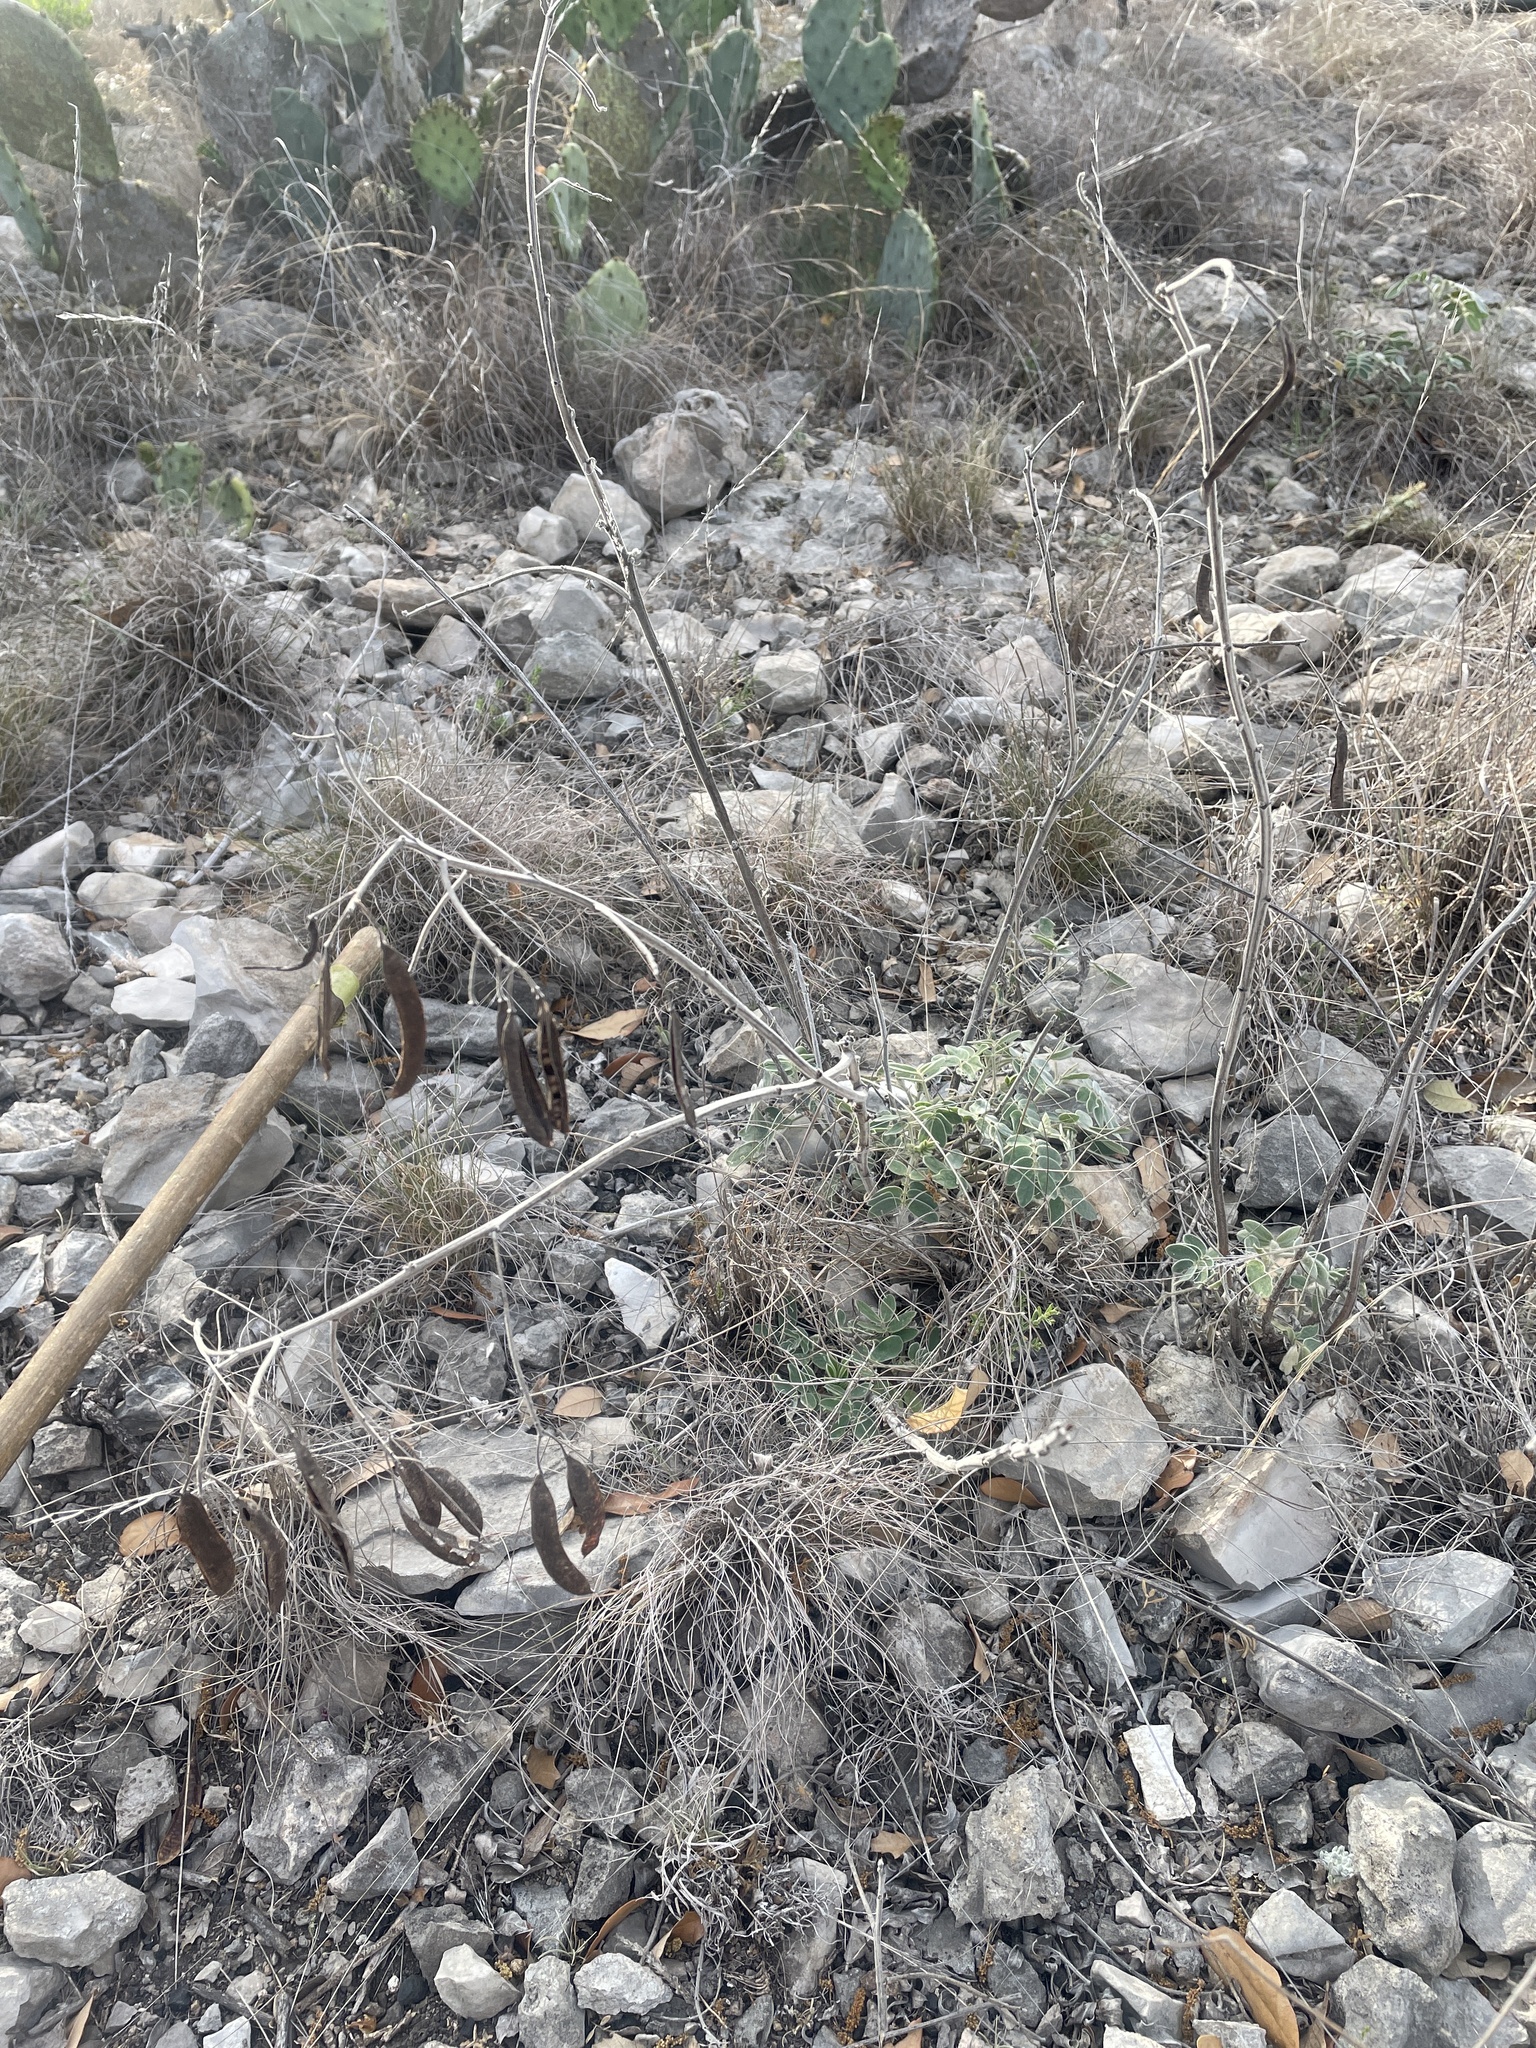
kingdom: Plantae
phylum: Tracheophyta
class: Magnoliopsida
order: Fabales
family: Fabaceae
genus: Senna
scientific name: Senna lindheimeriana
